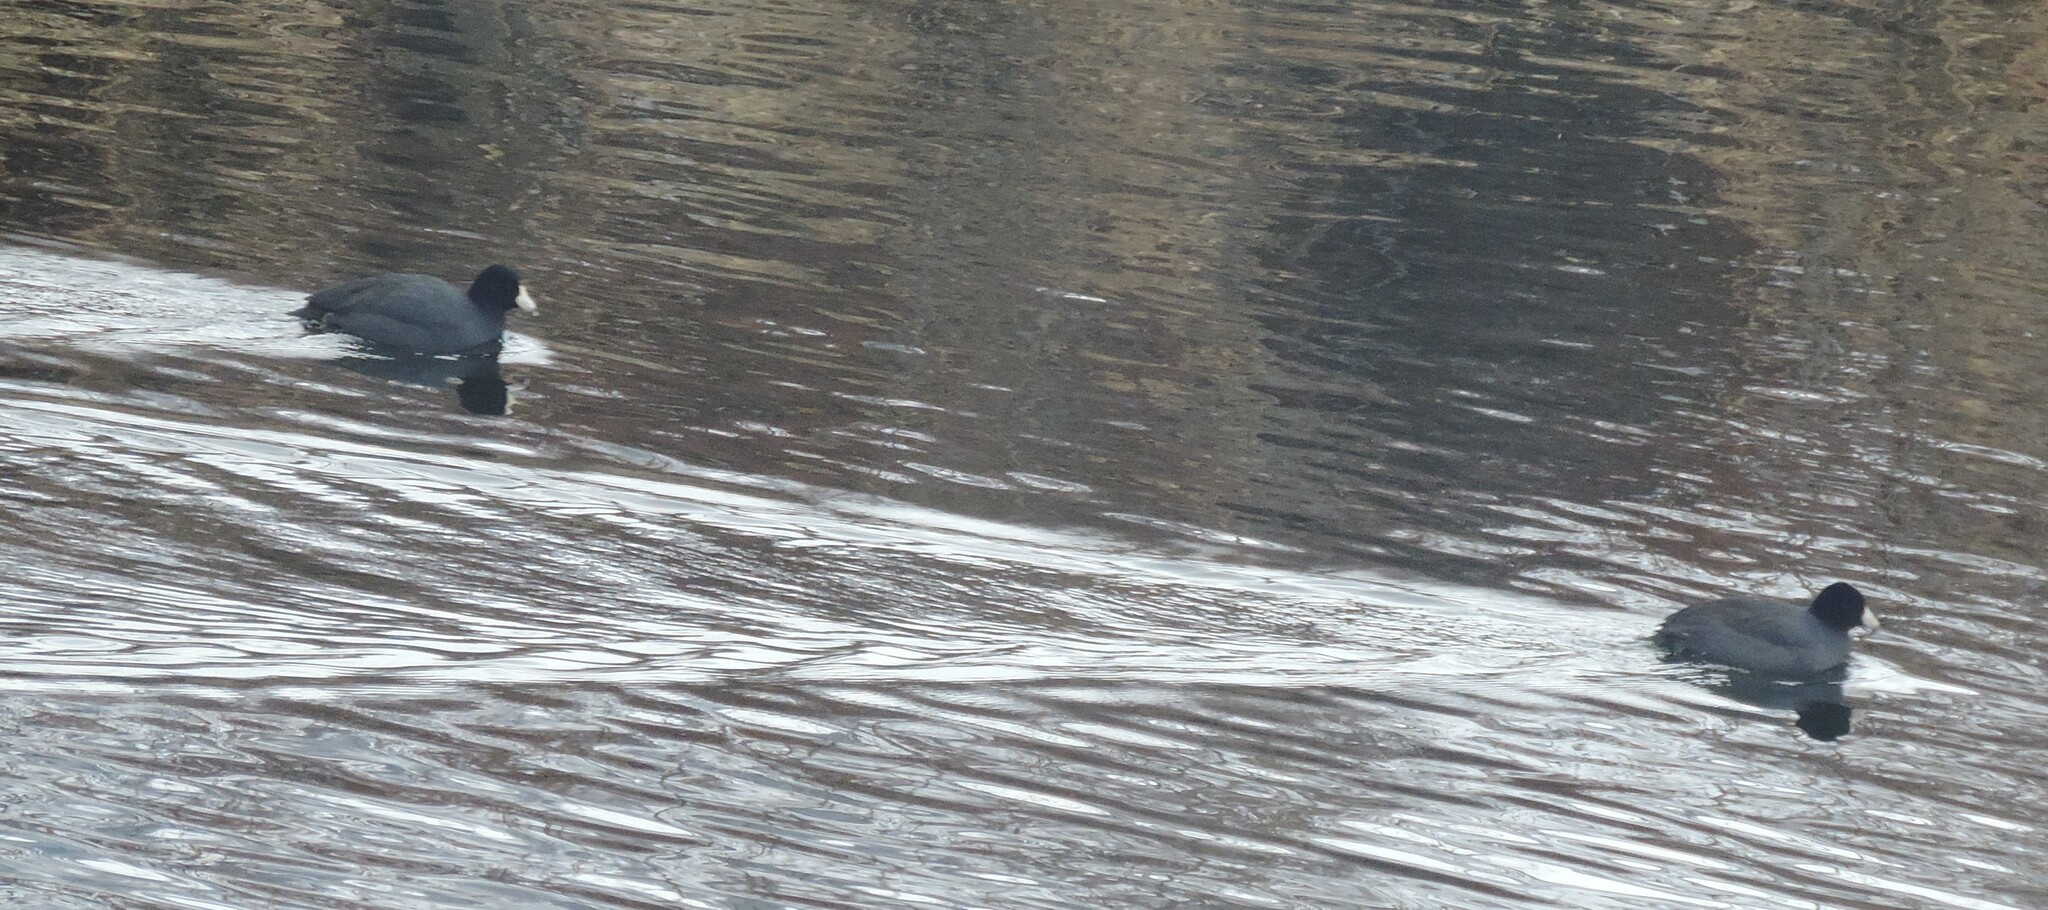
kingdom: Animalia
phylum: Chordata
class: Aves
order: Gruiformes
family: Rallidae
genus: Fulica
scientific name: Fulica americana
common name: American coot
